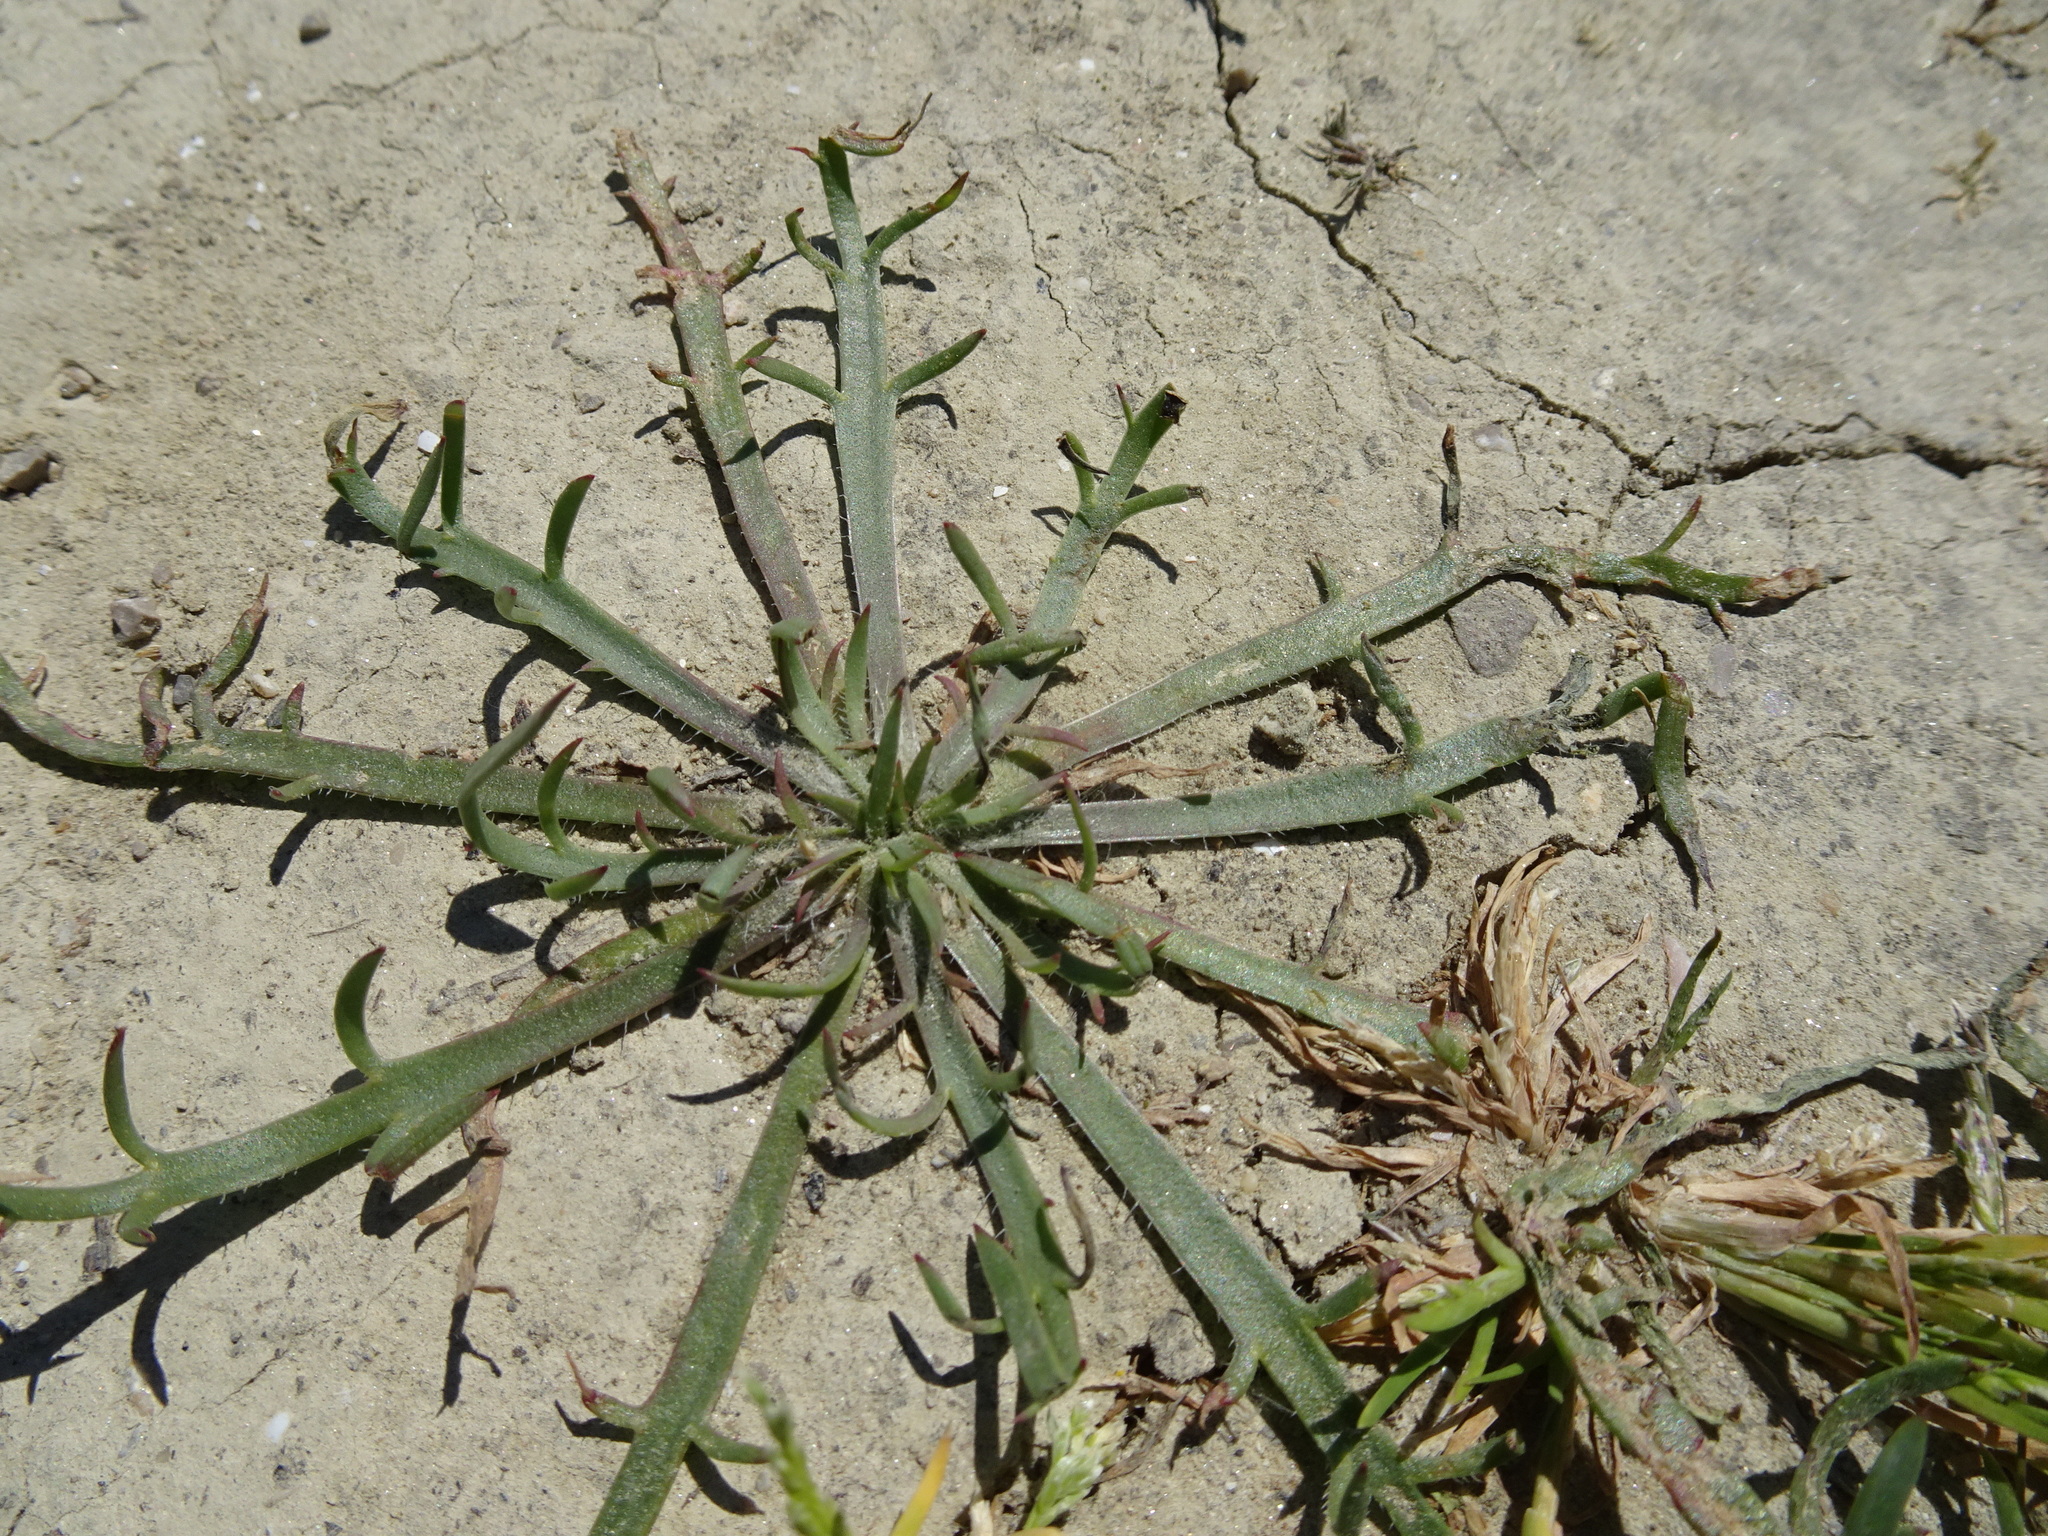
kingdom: Plantae
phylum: Tracheophyta
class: Magnoliopsida
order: Lamiales
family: Plantaginaceae
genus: Plantago
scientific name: Plantago coronopus
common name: Buck's-horn plantain
